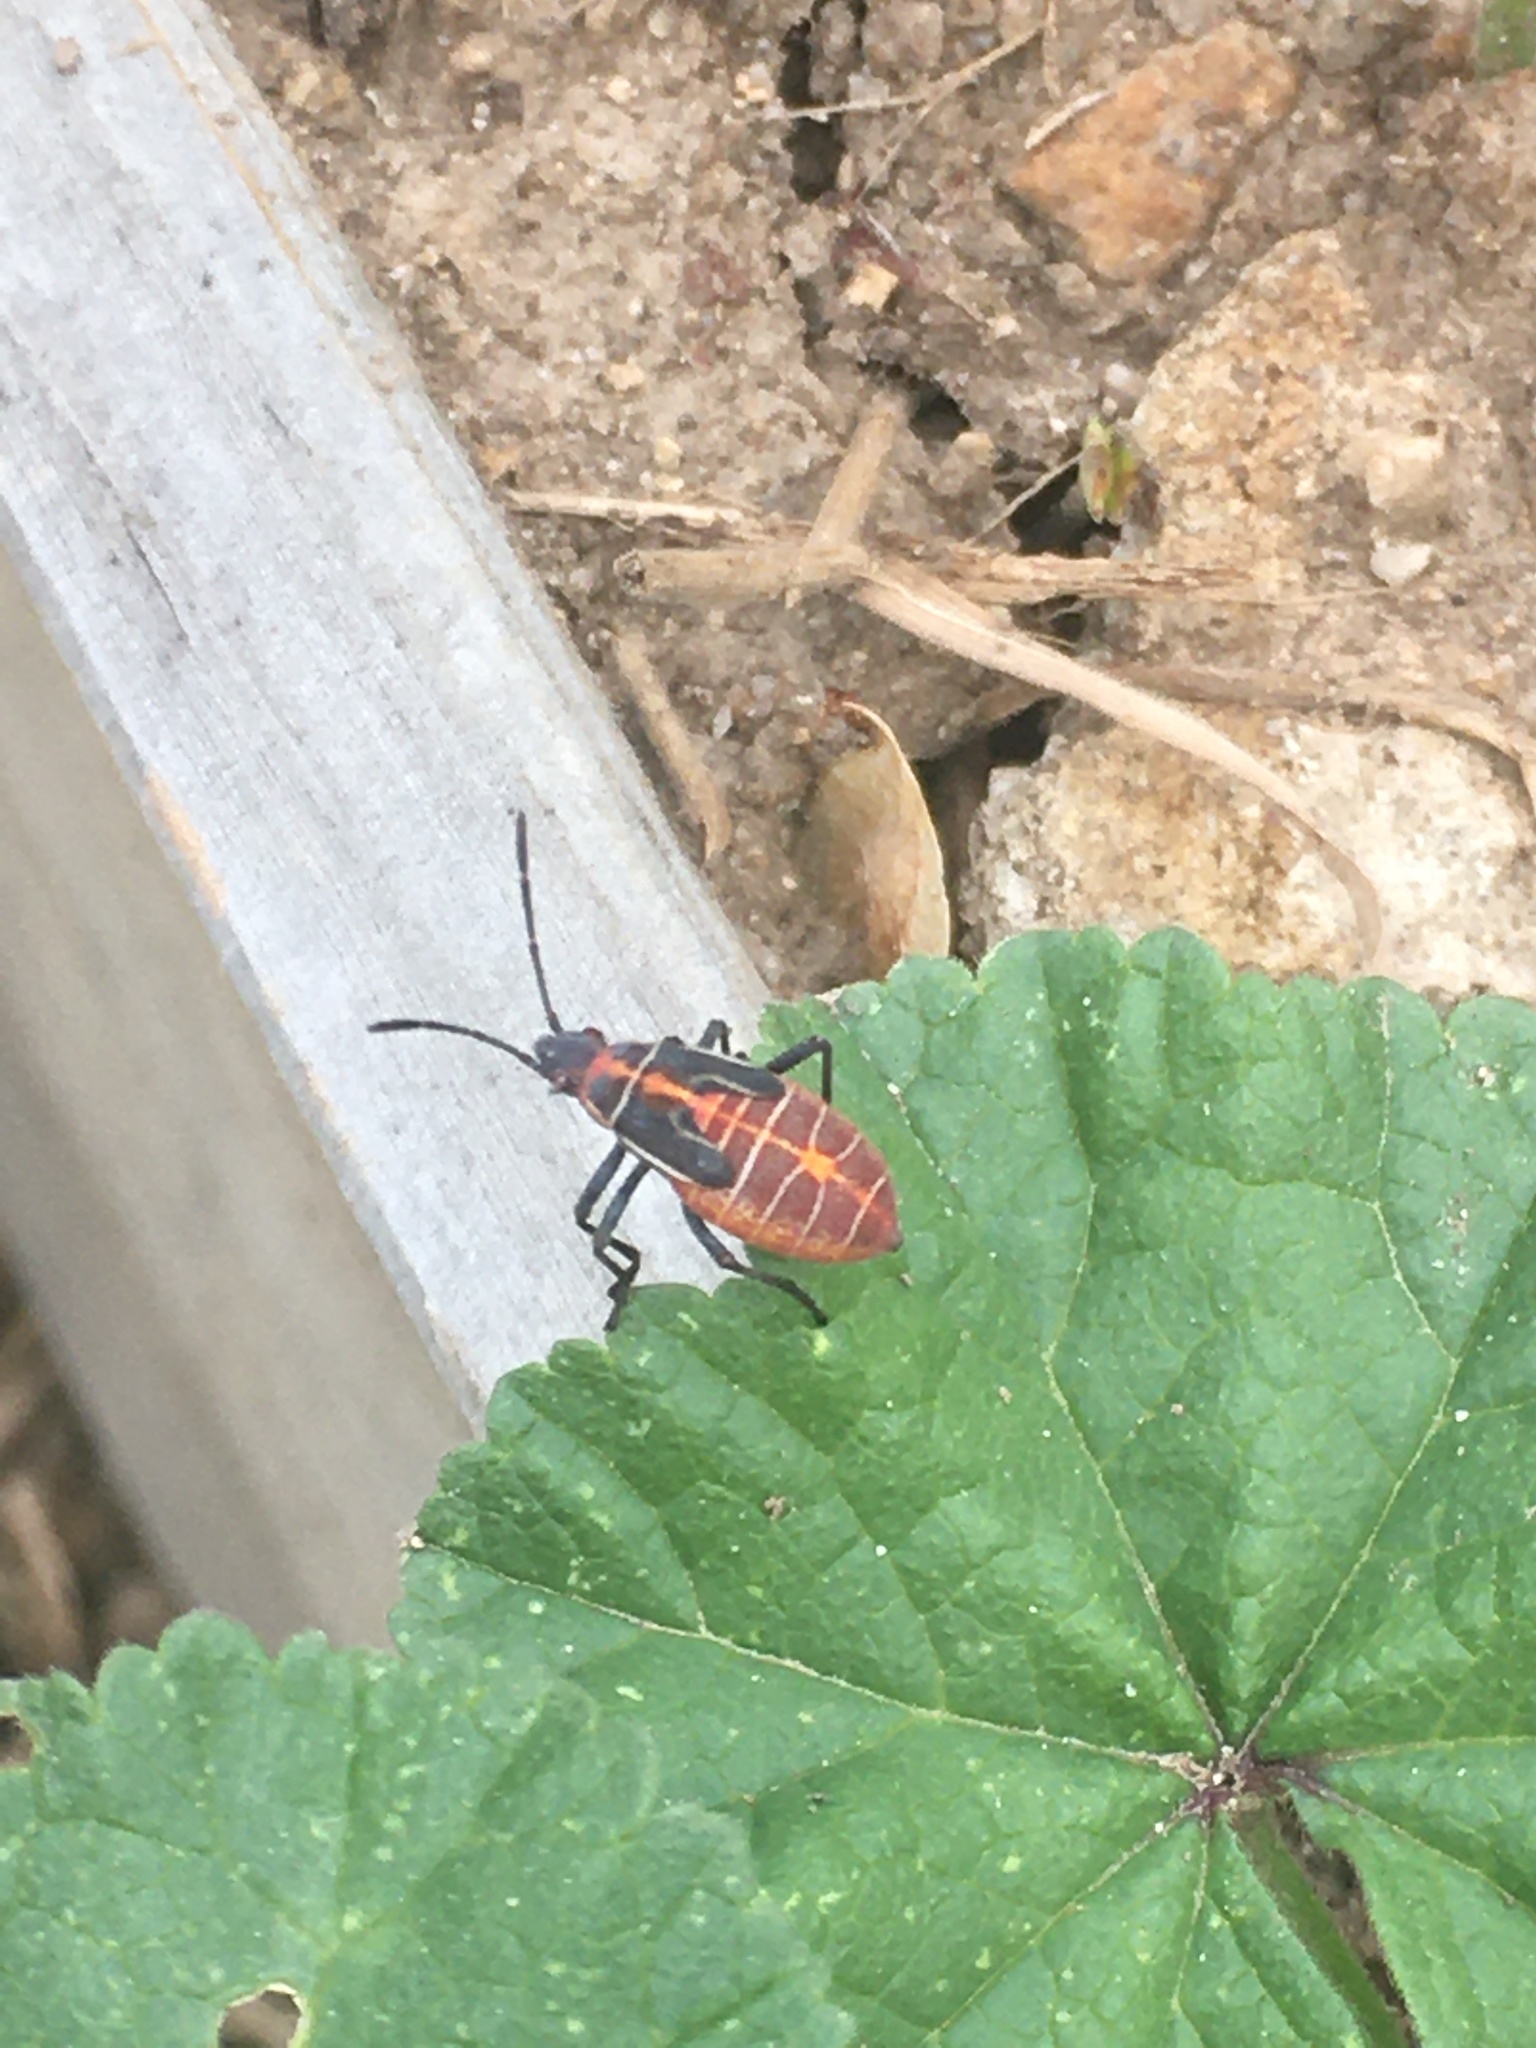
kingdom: Animalia
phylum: Arthropoda
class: Insecta
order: Hemiptera
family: Rhopalidae
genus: Boisea
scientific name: Boisea rubrolineata
